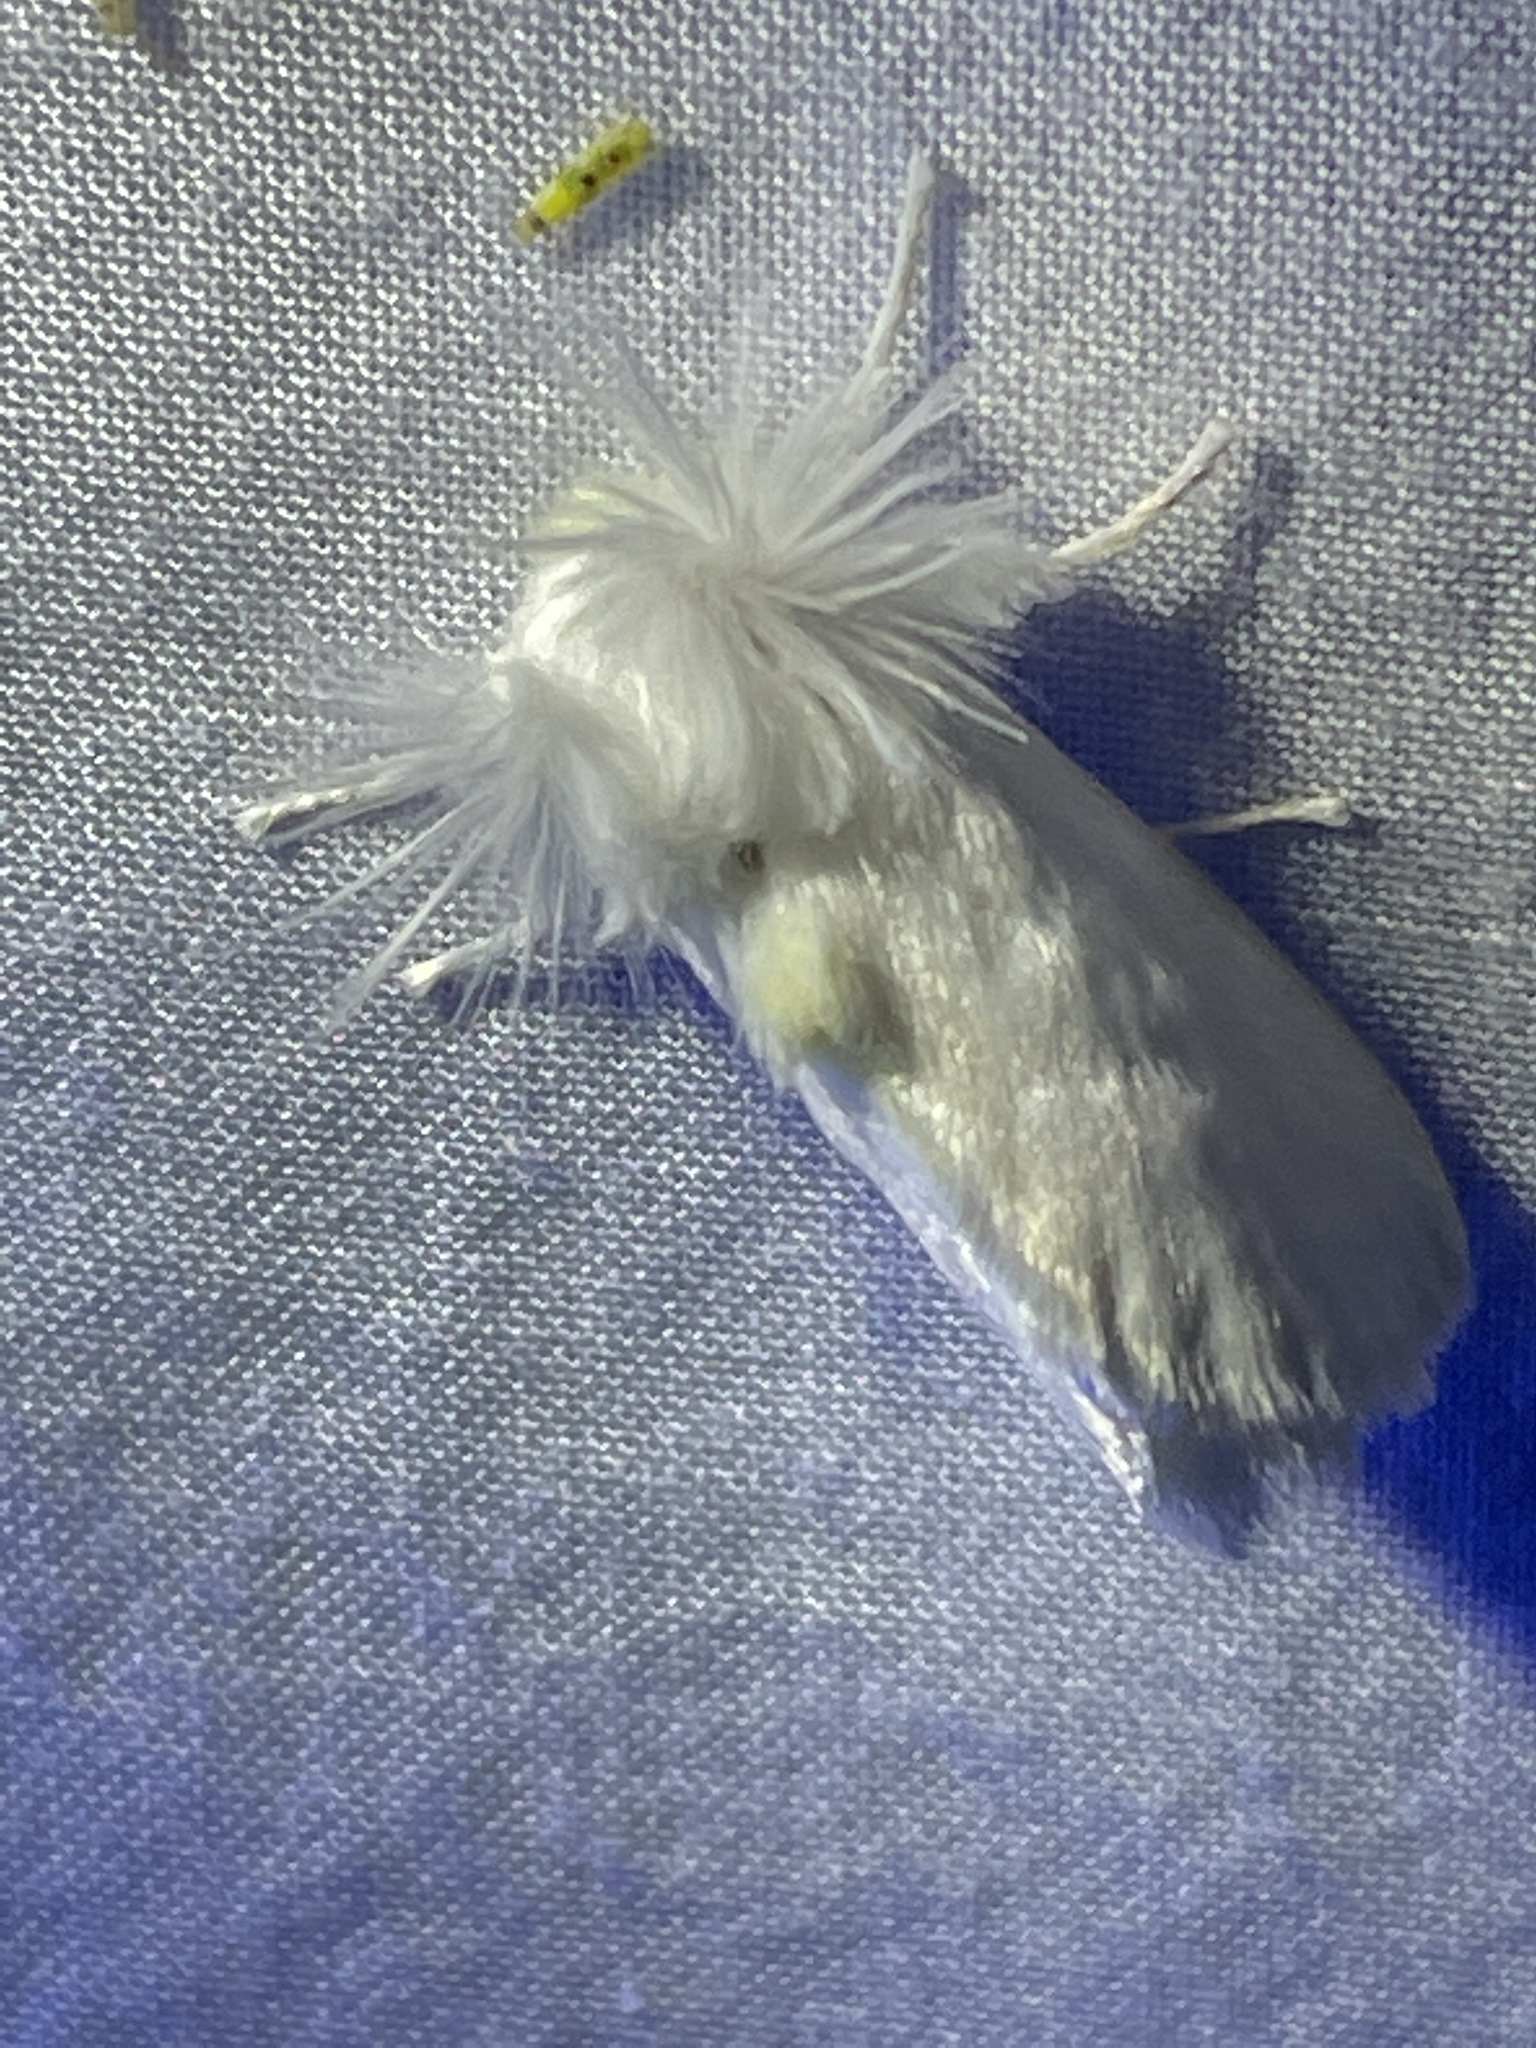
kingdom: Animalia
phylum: Arthropoda
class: Insecta
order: Lepidoptera
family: Megalopygidae
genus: Norape
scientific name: Norape cretata
